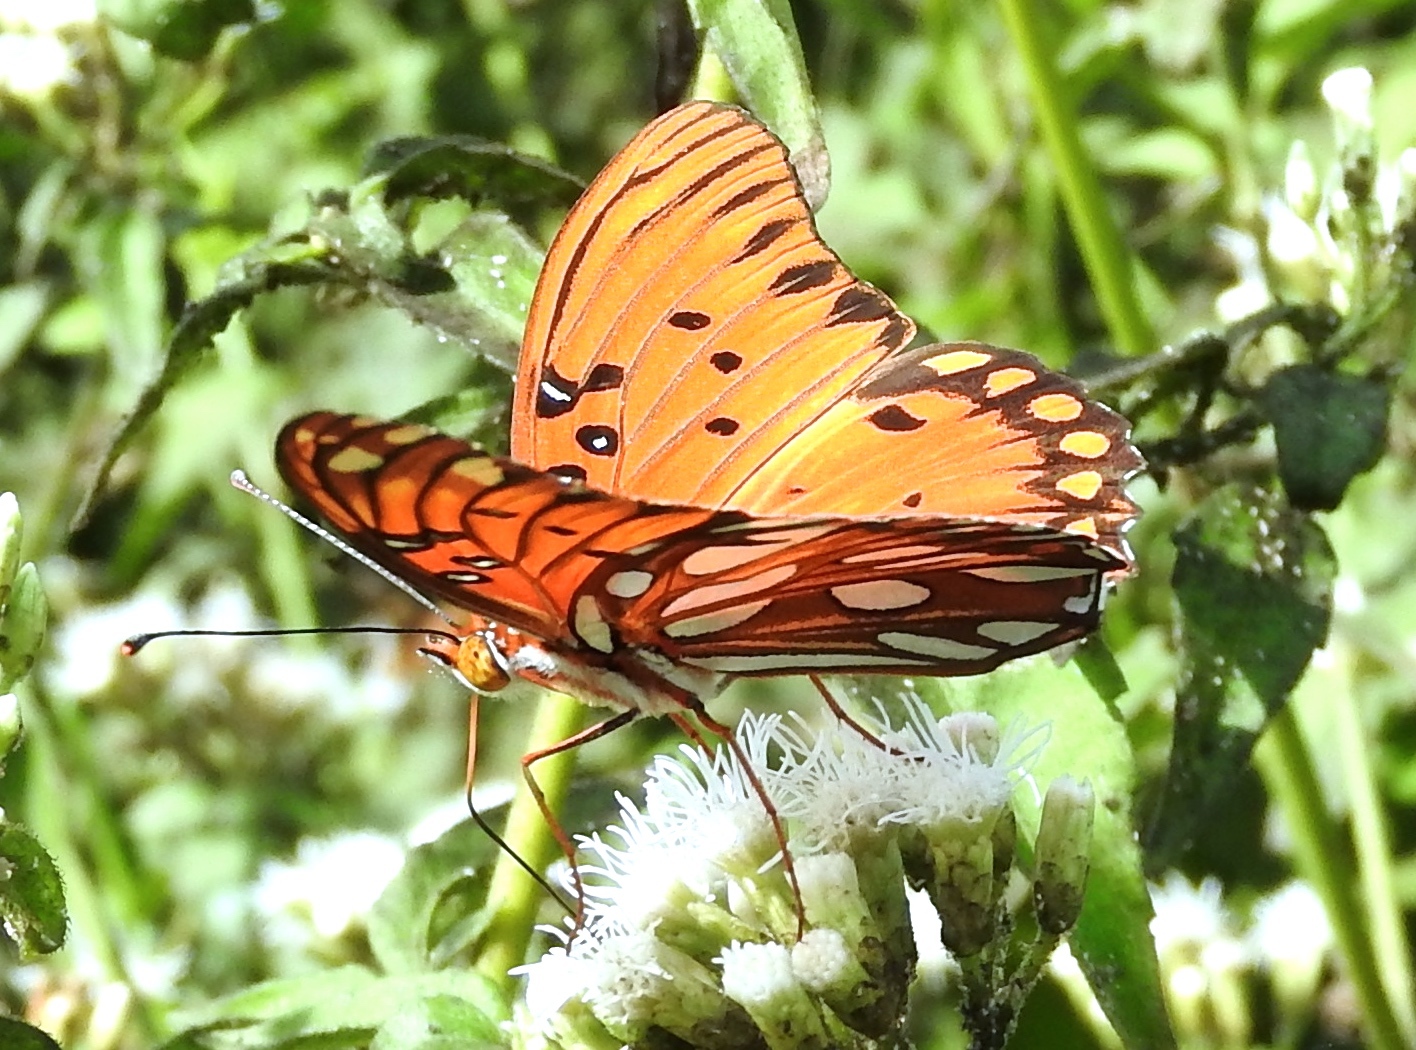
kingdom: Animalia
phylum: Arthropoda
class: Insecta
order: Lepidoptera
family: Nymphalidae
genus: Dione
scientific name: Dione vanillae
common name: Gulf fritillary
